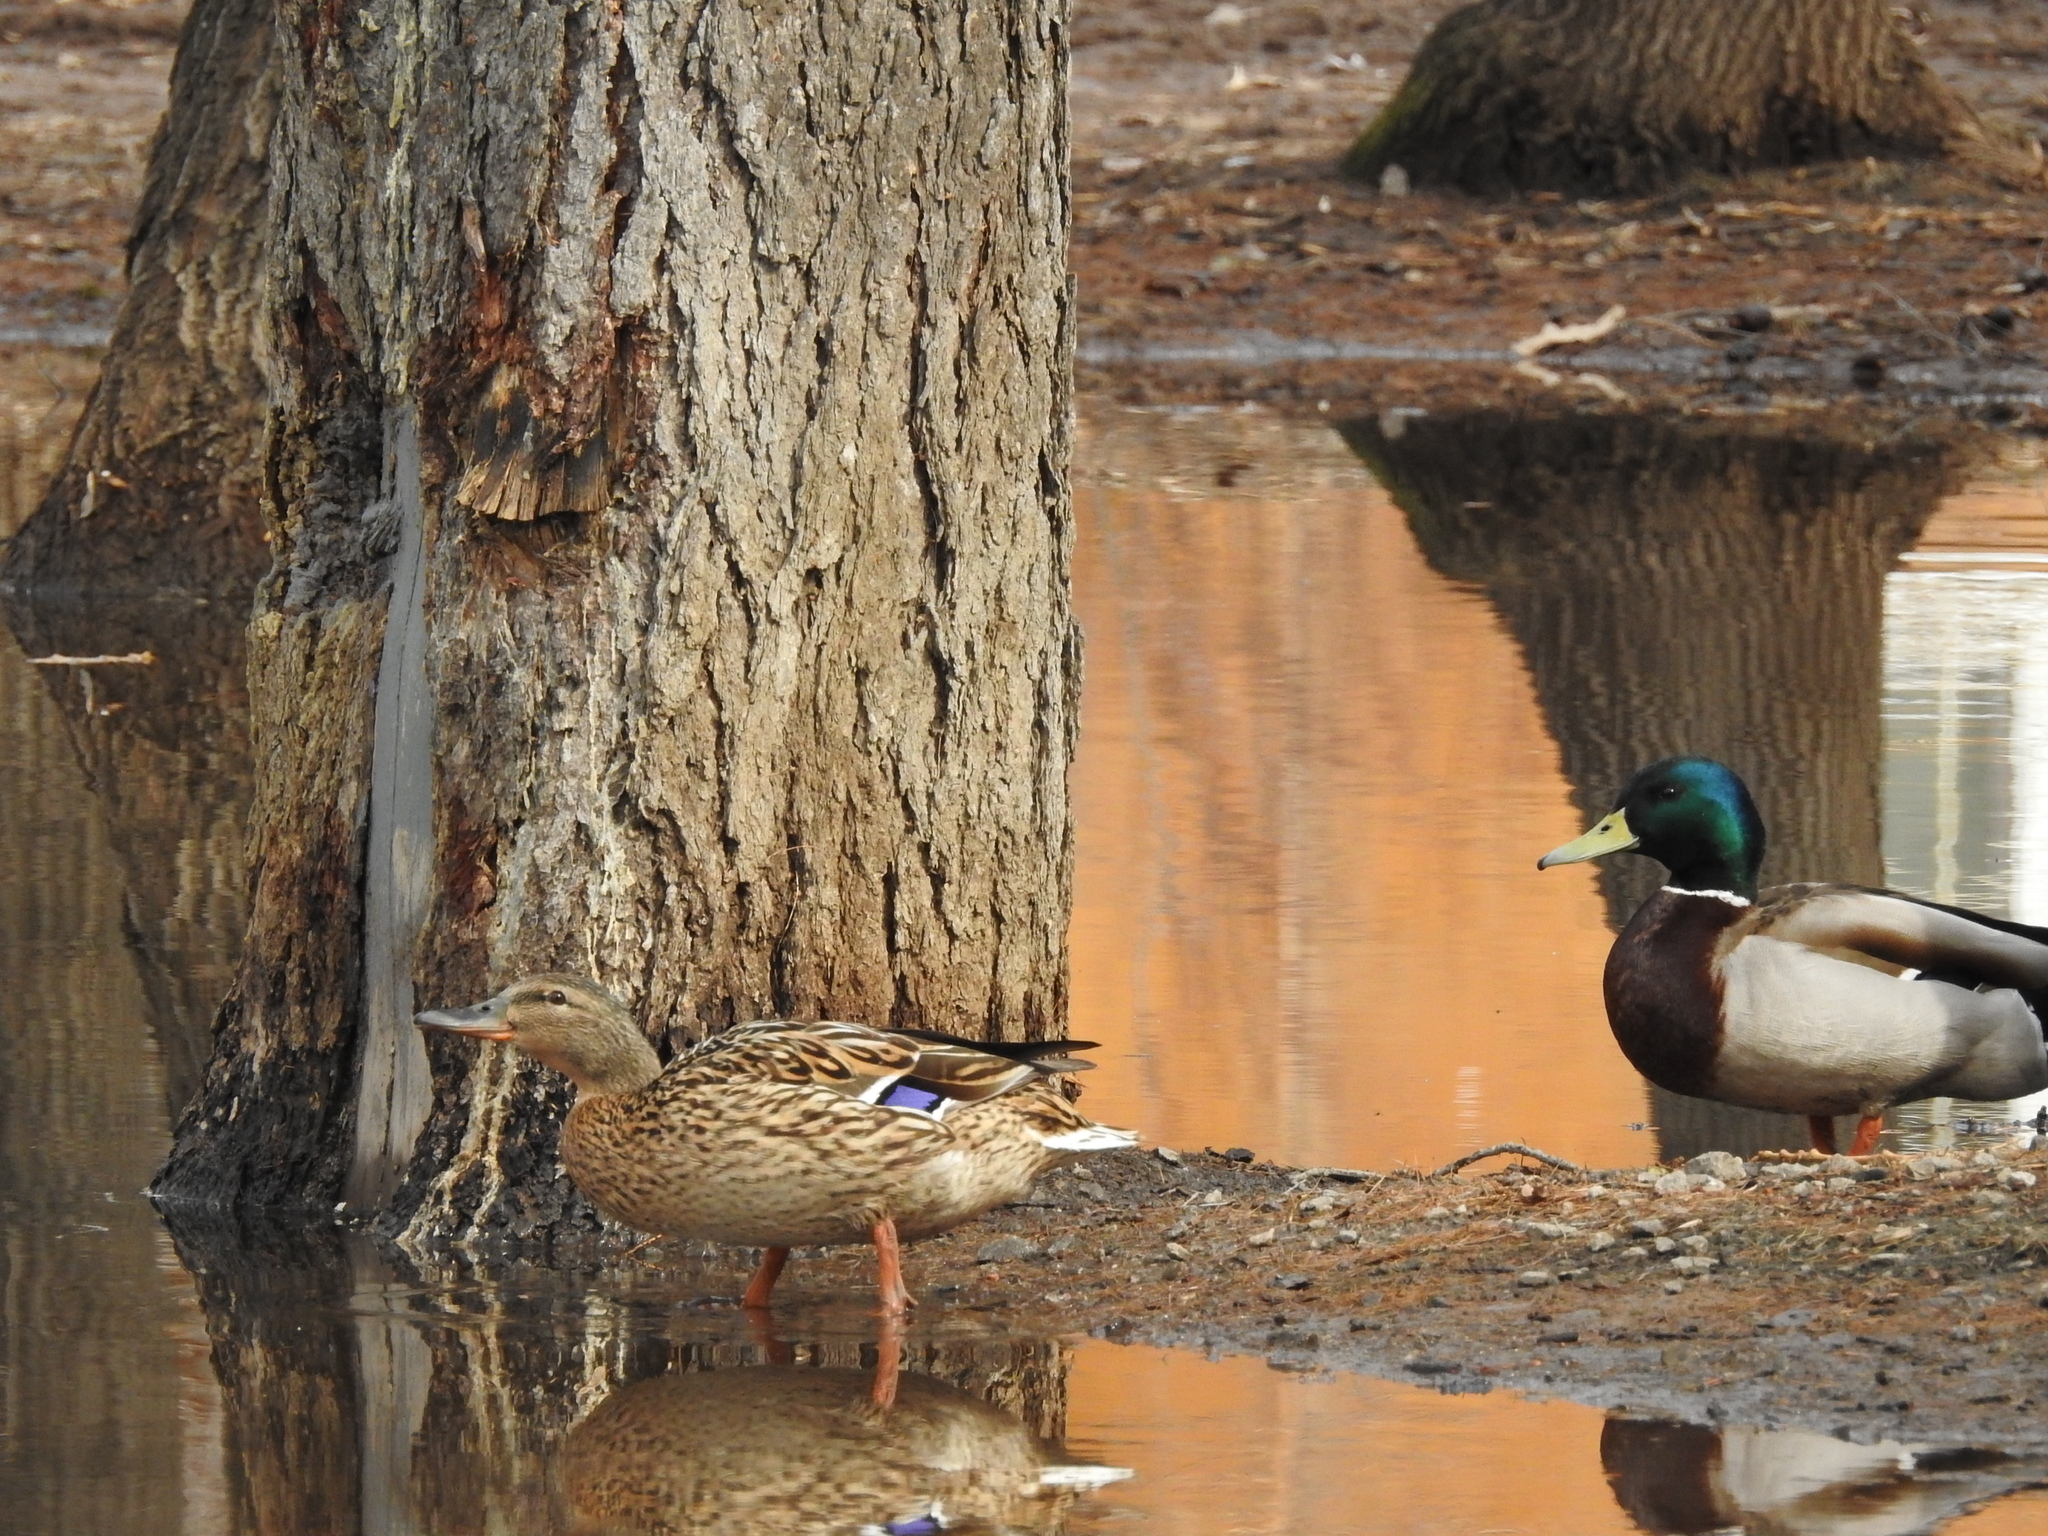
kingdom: Animalia
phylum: Chordata
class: Aves
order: Anseriformes
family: Anatidae
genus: Anas
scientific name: Anas platyrhynchos
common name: Mallard
